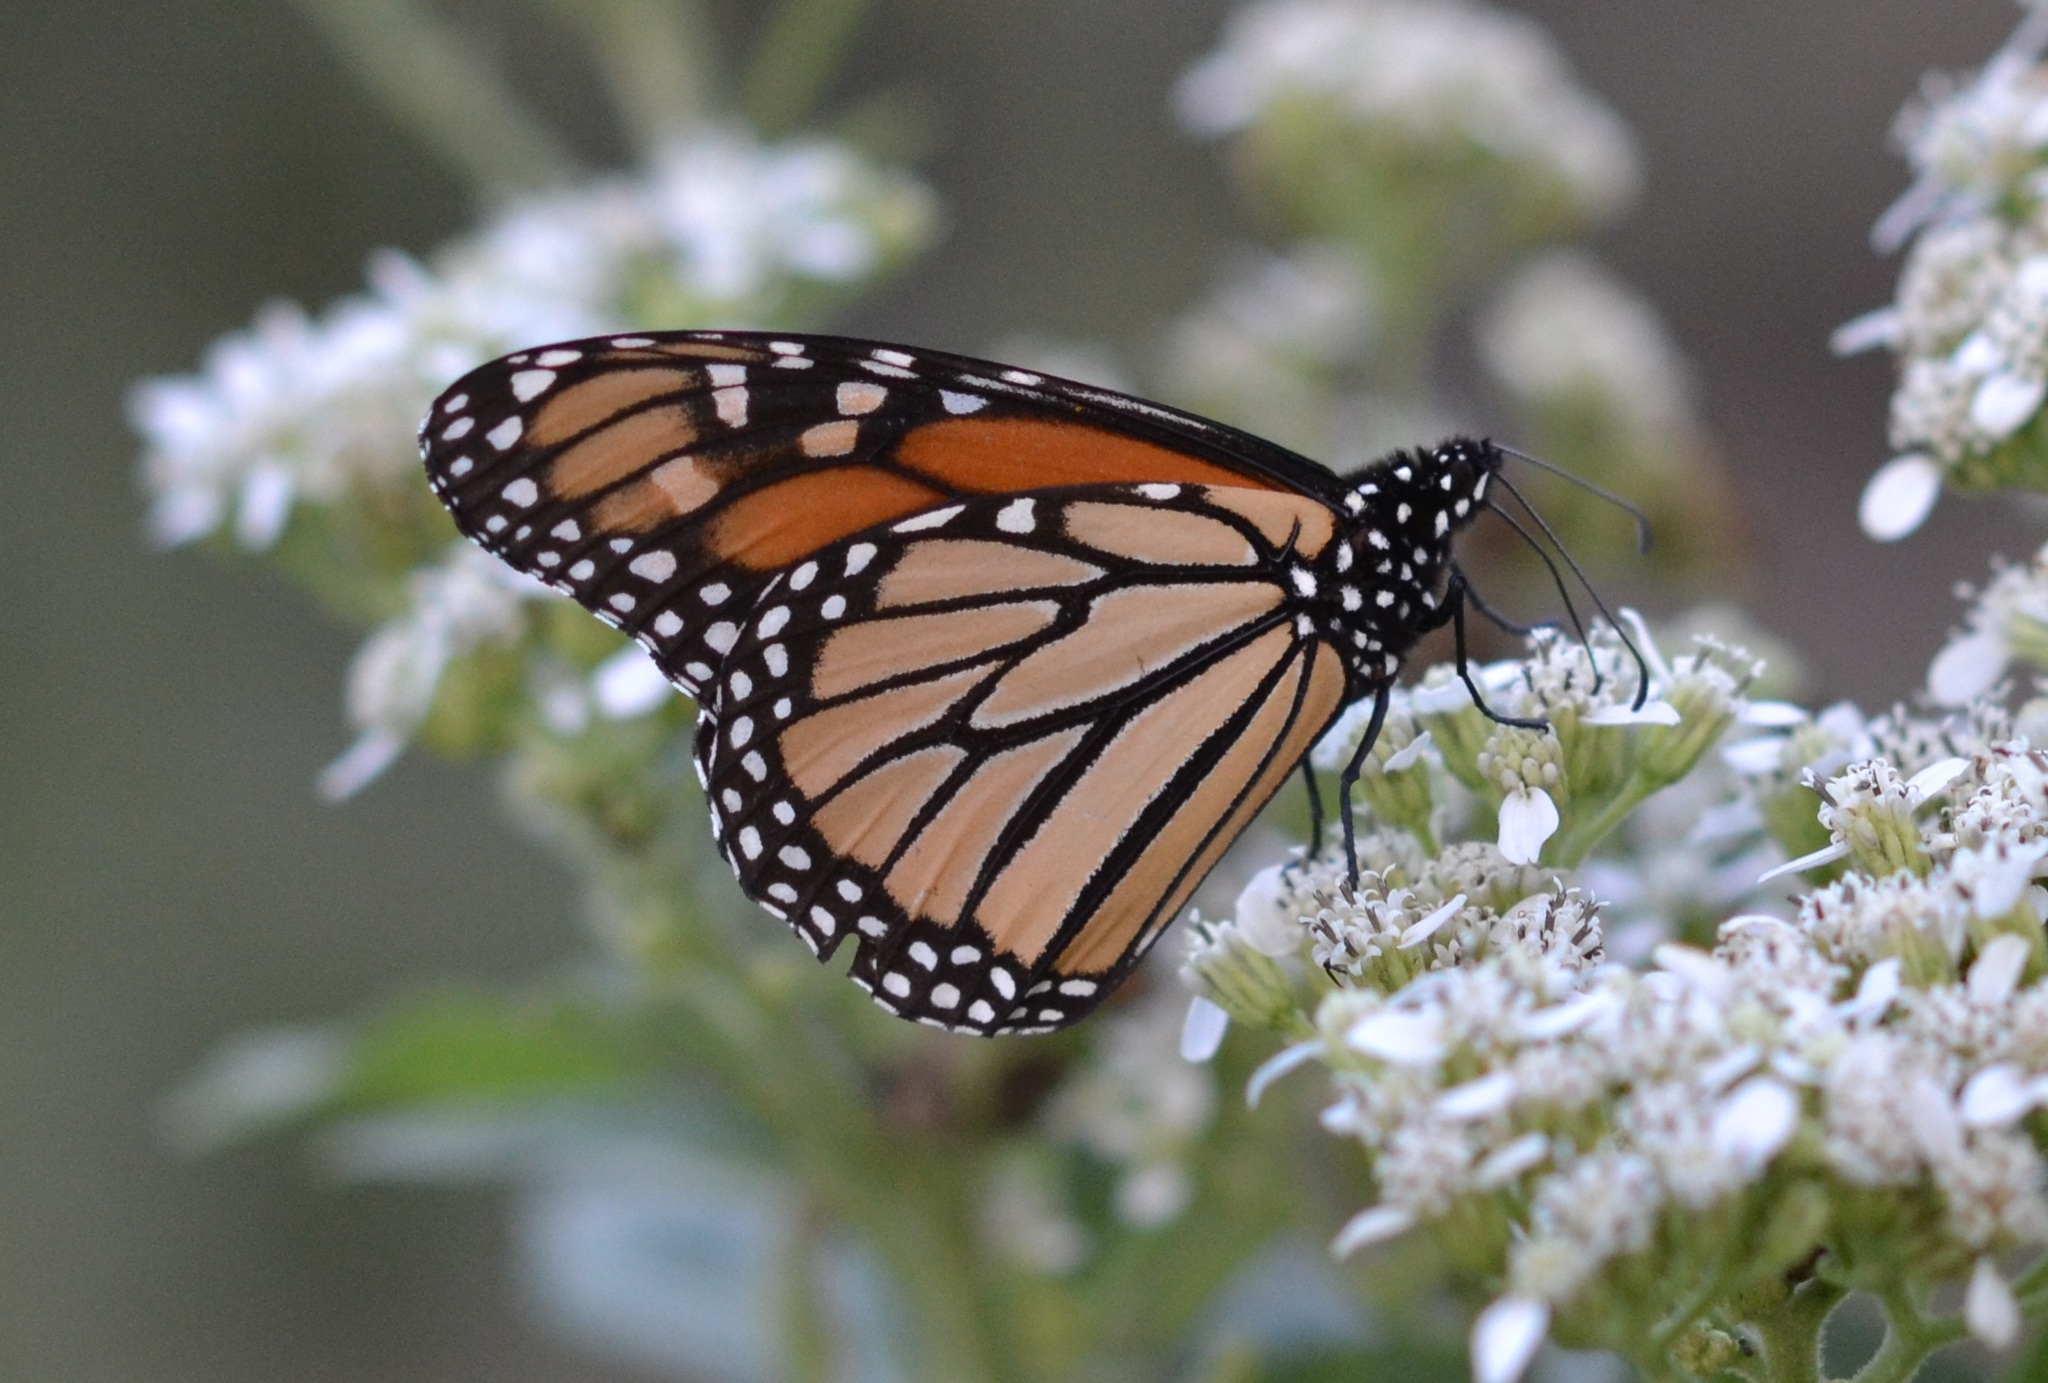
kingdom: Animalia
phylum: Arthropoda
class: Insecta
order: Lepidoptera
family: Nymphalidae
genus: Danaus
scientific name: Danaus plexippus
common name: Monarch
